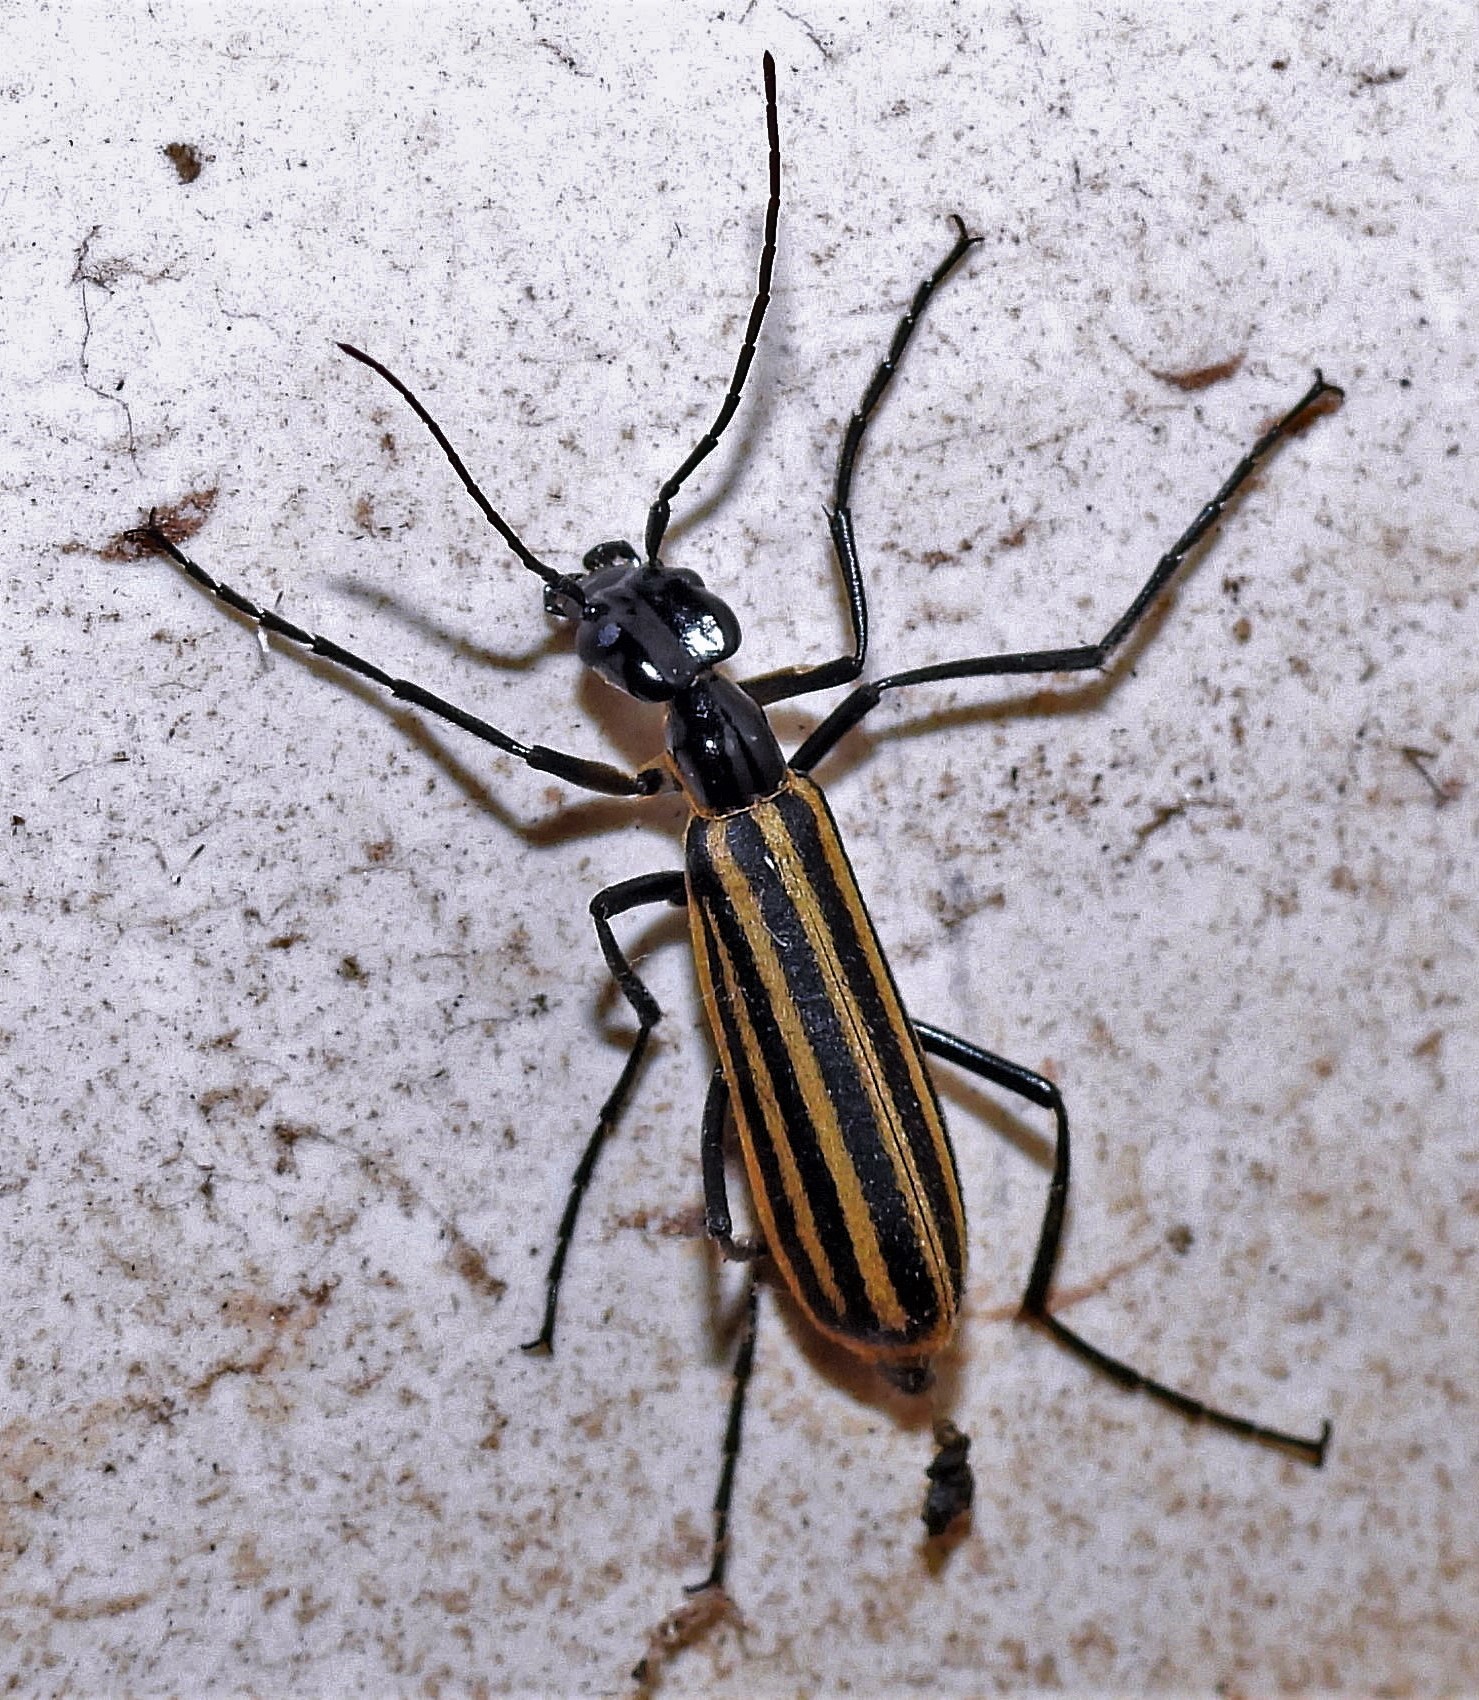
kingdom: Animalia
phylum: Arthropoda
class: Insecta
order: Coleoptera
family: Meloidae
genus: Epicauta
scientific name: Epicauta excavata
